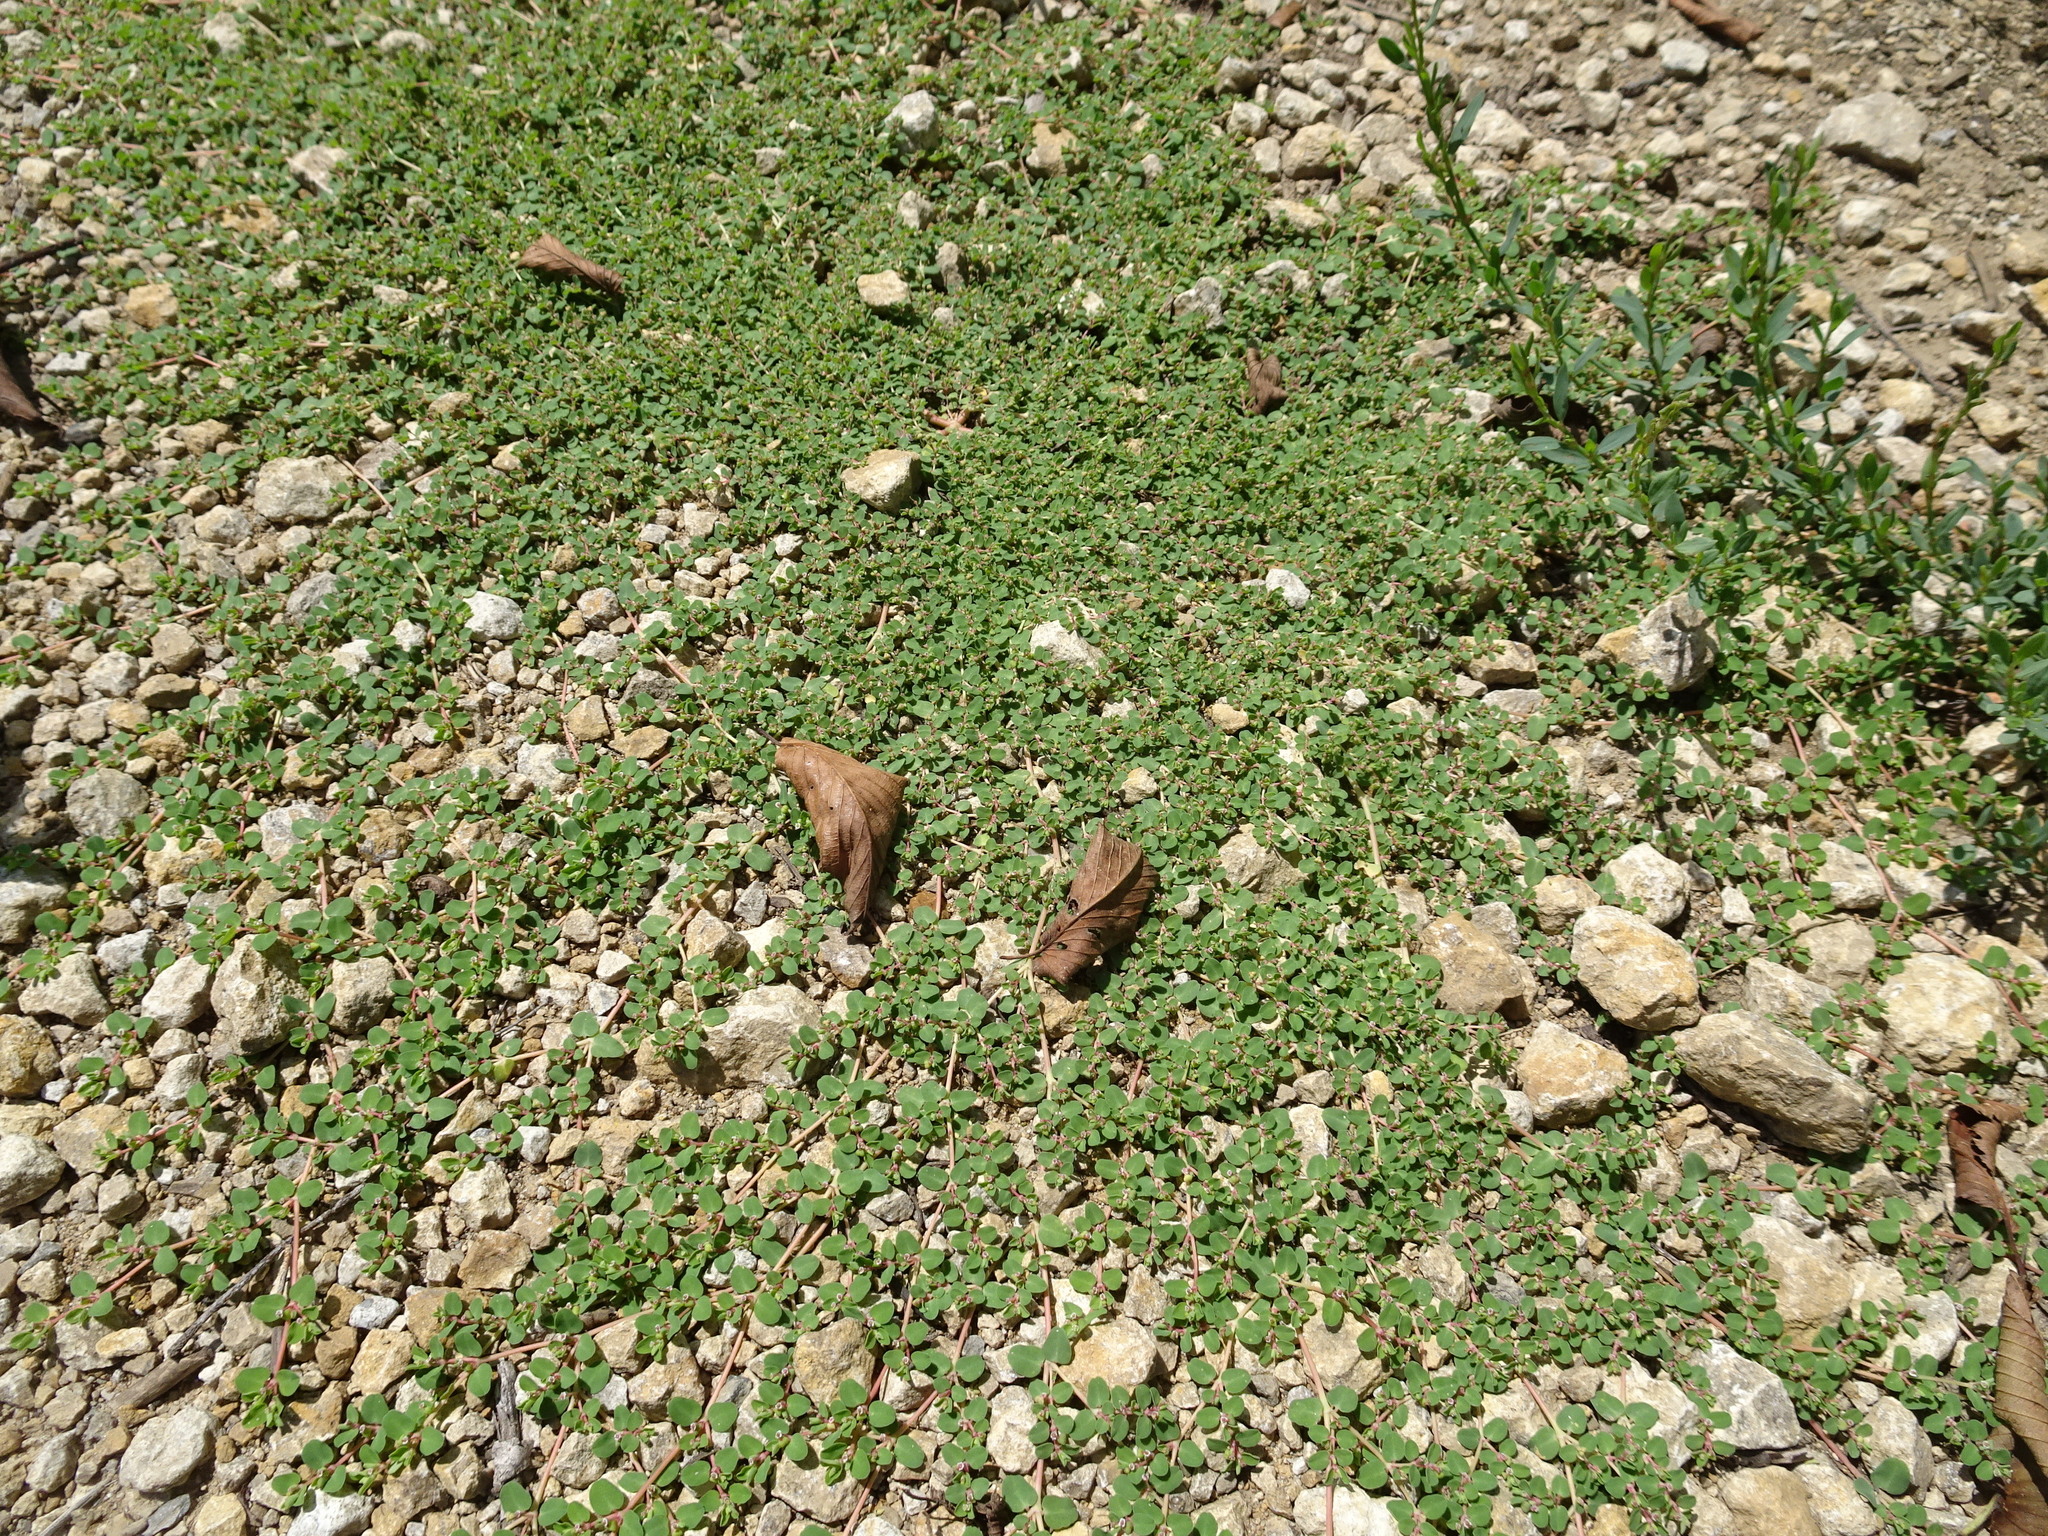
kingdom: Plantae
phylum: Tracheophyta
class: Magnoliopsida
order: Malpighiales
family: Euphorbiaceae
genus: Euphorbia
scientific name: Euphorbia serpens
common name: Matted sandmat
